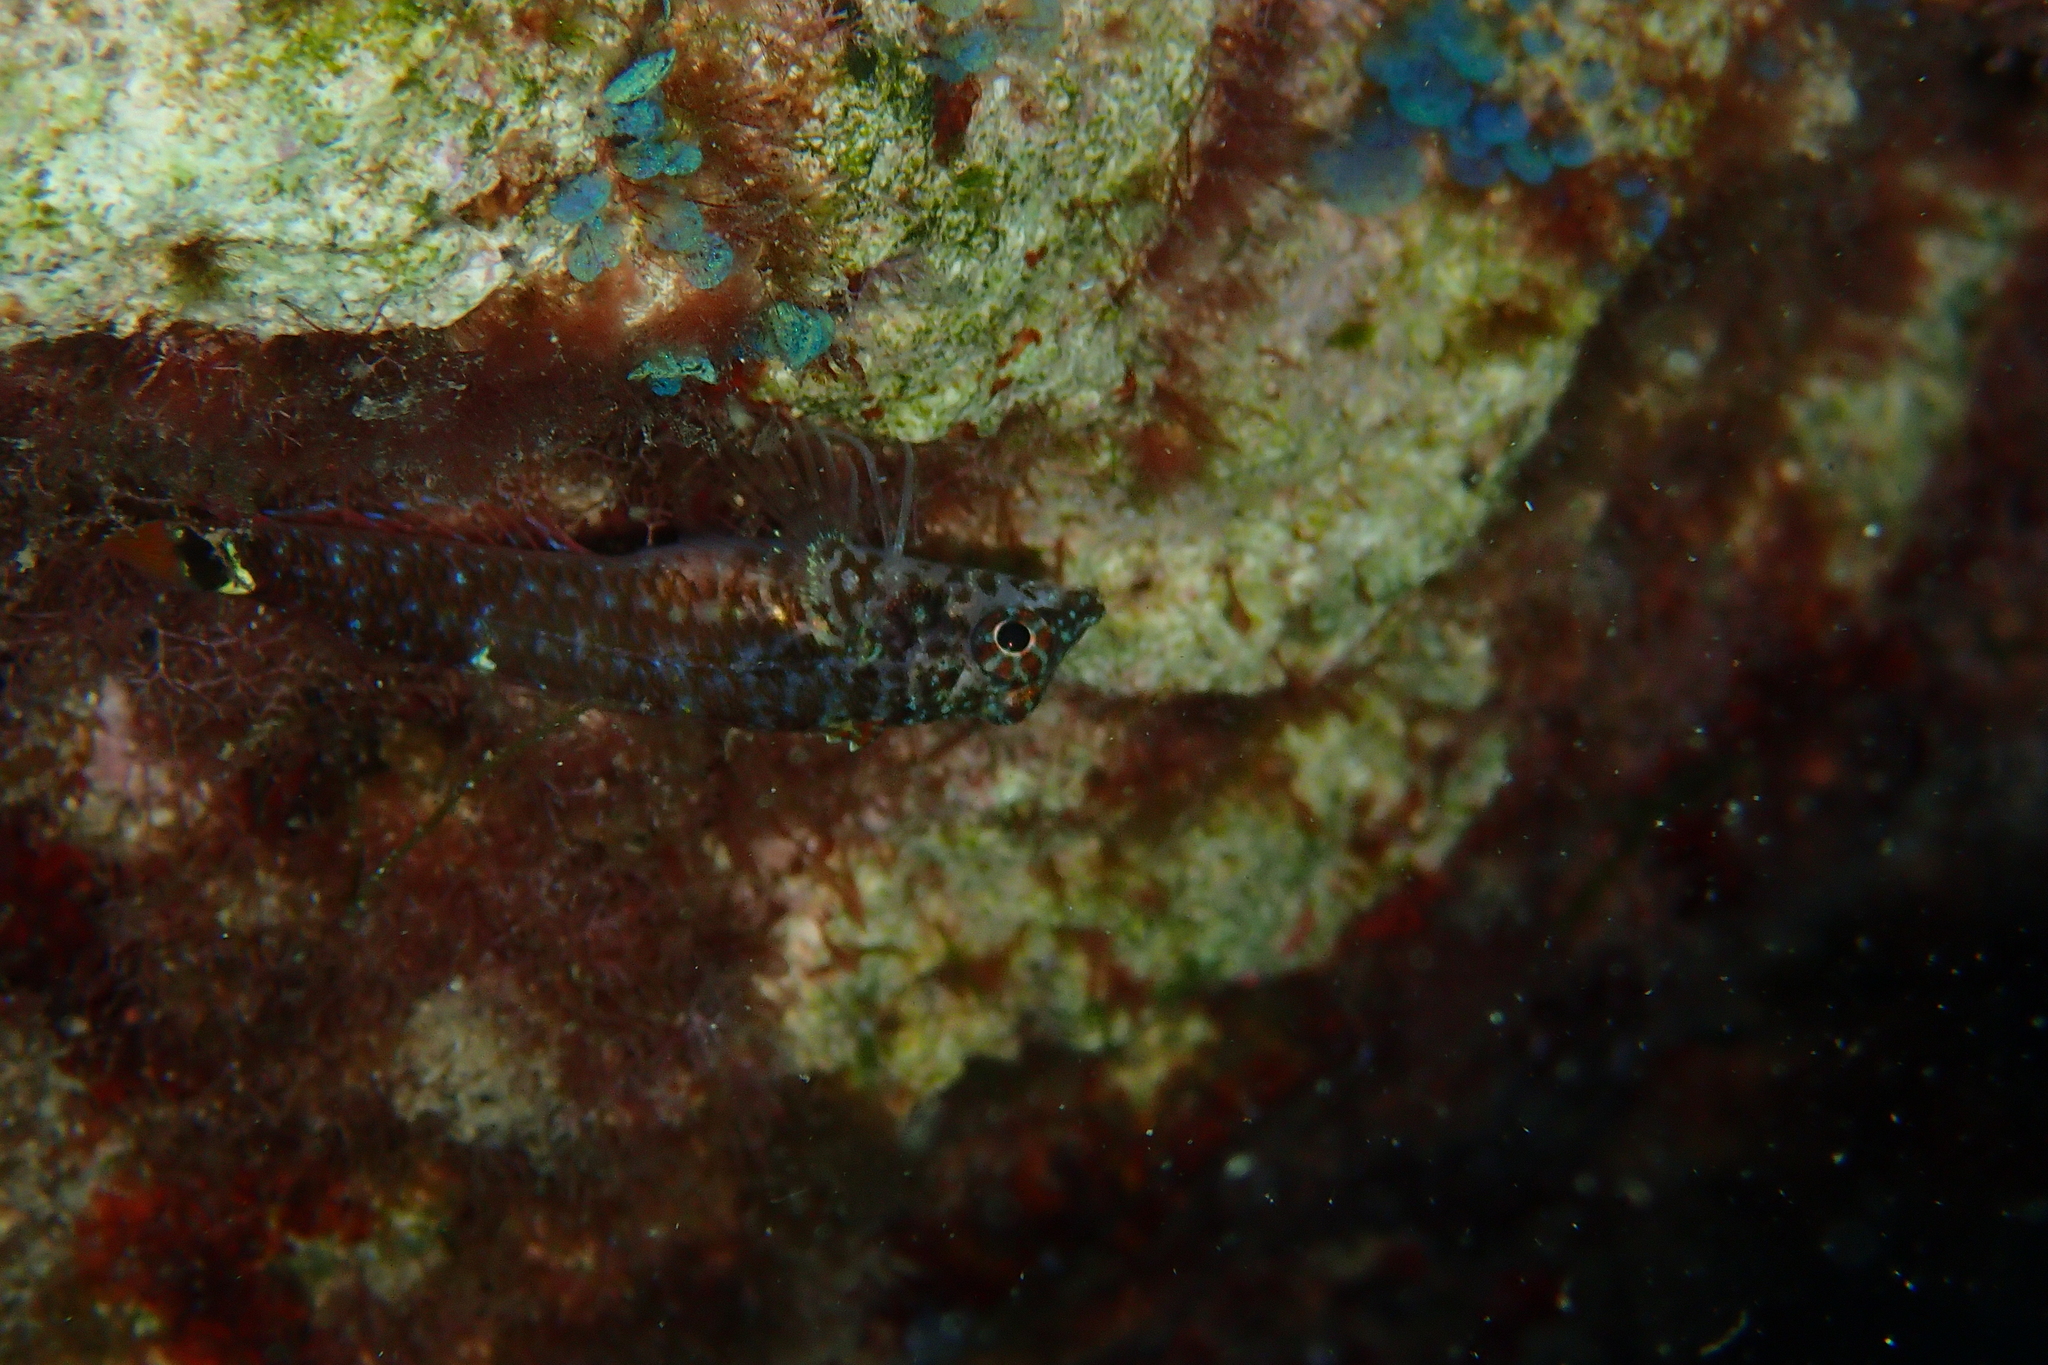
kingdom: Animalia
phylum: Chordata
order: Perciformes
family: Tripterygiidae
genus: Tripterygion
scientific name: Tripterygion melanurum
